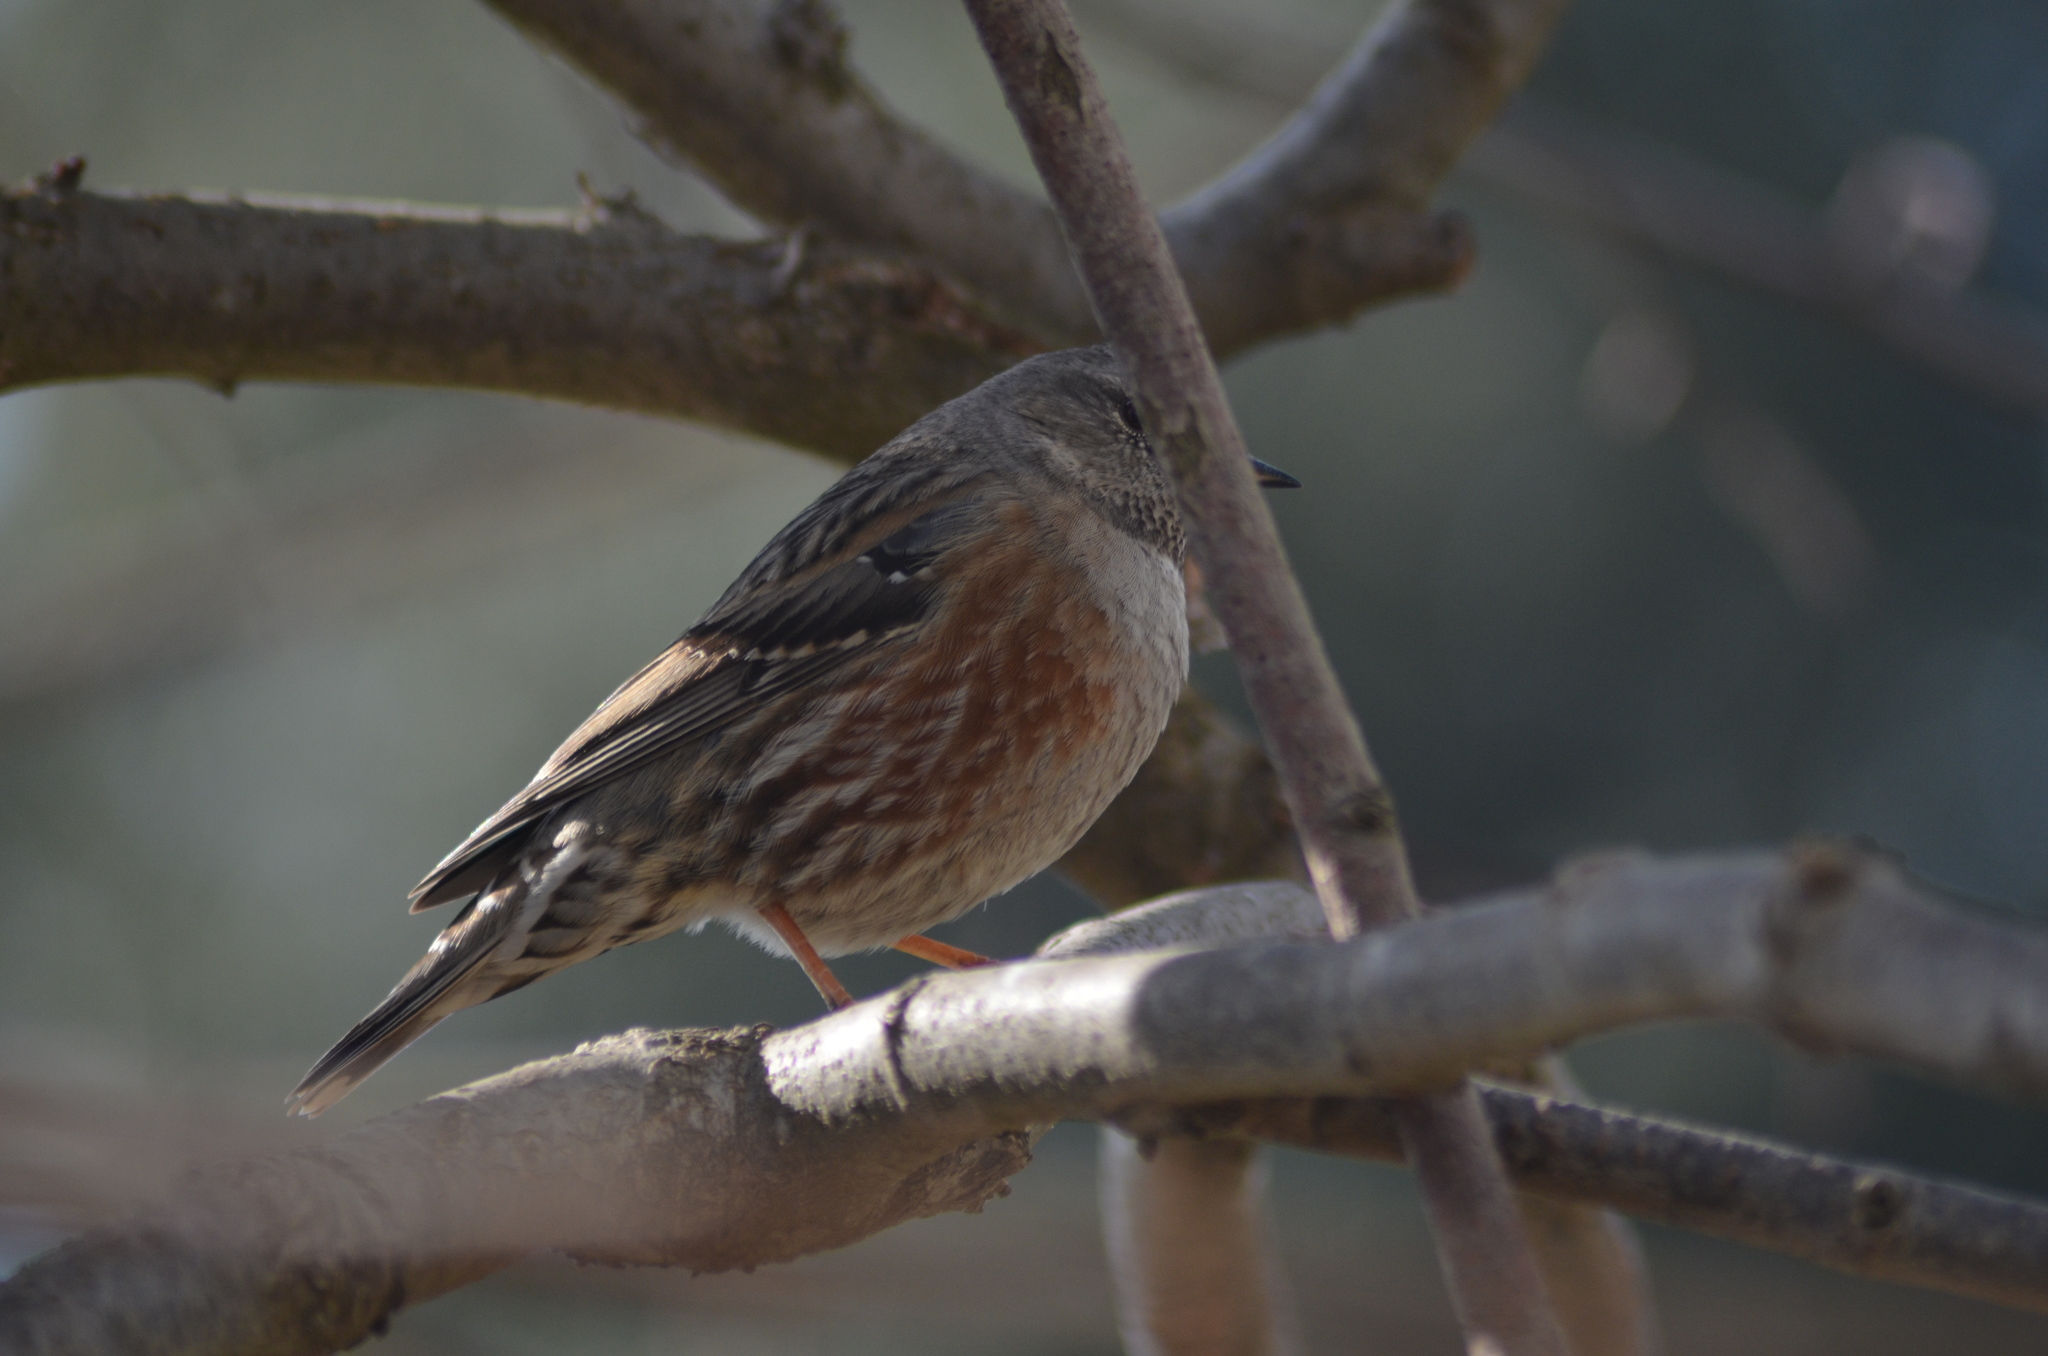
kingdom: Animalia
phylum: Chordata
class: Aves
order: Passeriformes
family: Prunellidae
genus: Prunella
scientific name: Prunella collaris
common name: Alpine accentor
